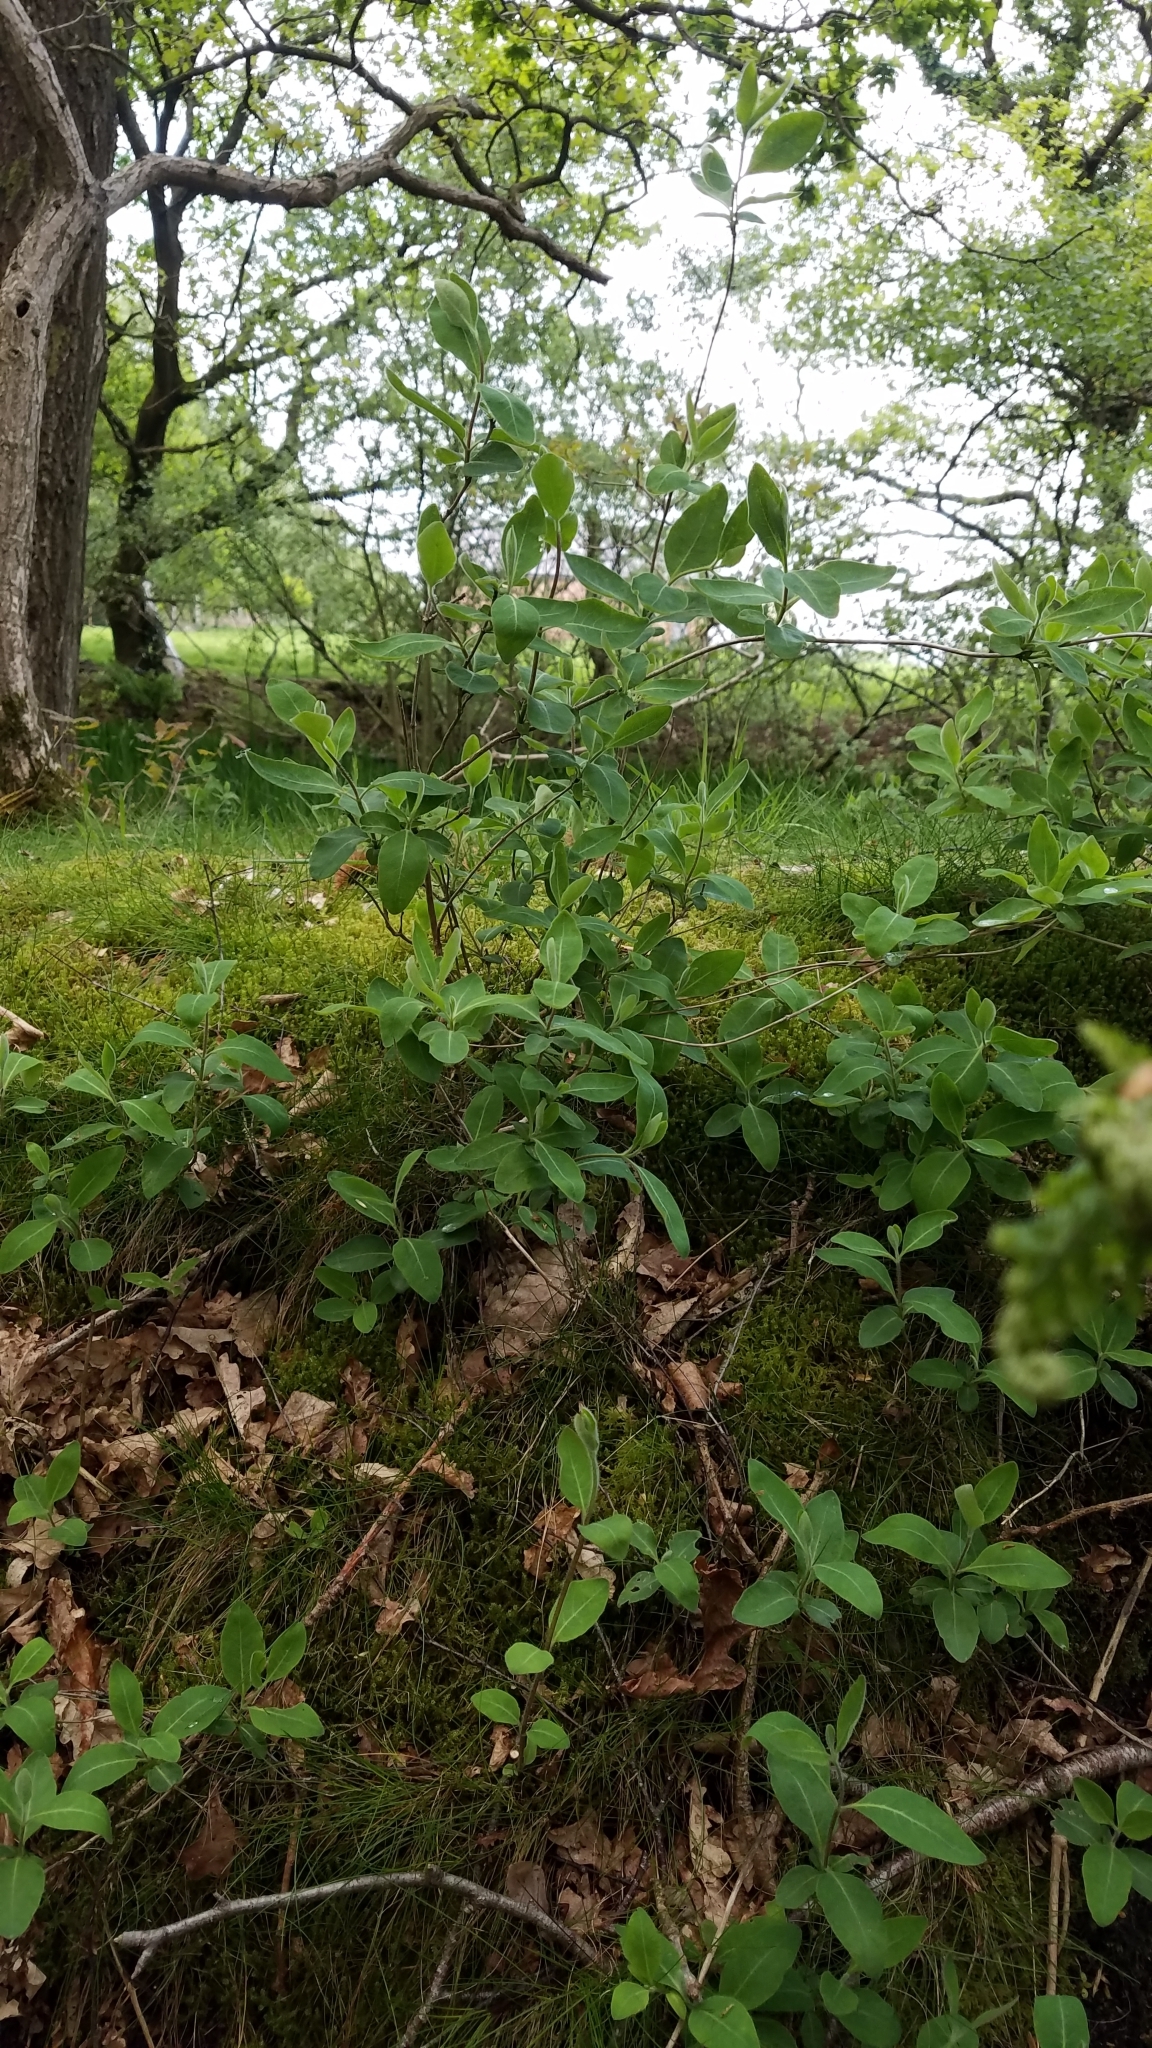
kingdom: Plantae
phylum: Tracheophyta
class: Magnoliopsida
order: Dipsacales
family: Caprifoliaceae
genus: Lonicera
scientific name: Lonicera periclymenum
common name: European honeysuckle
